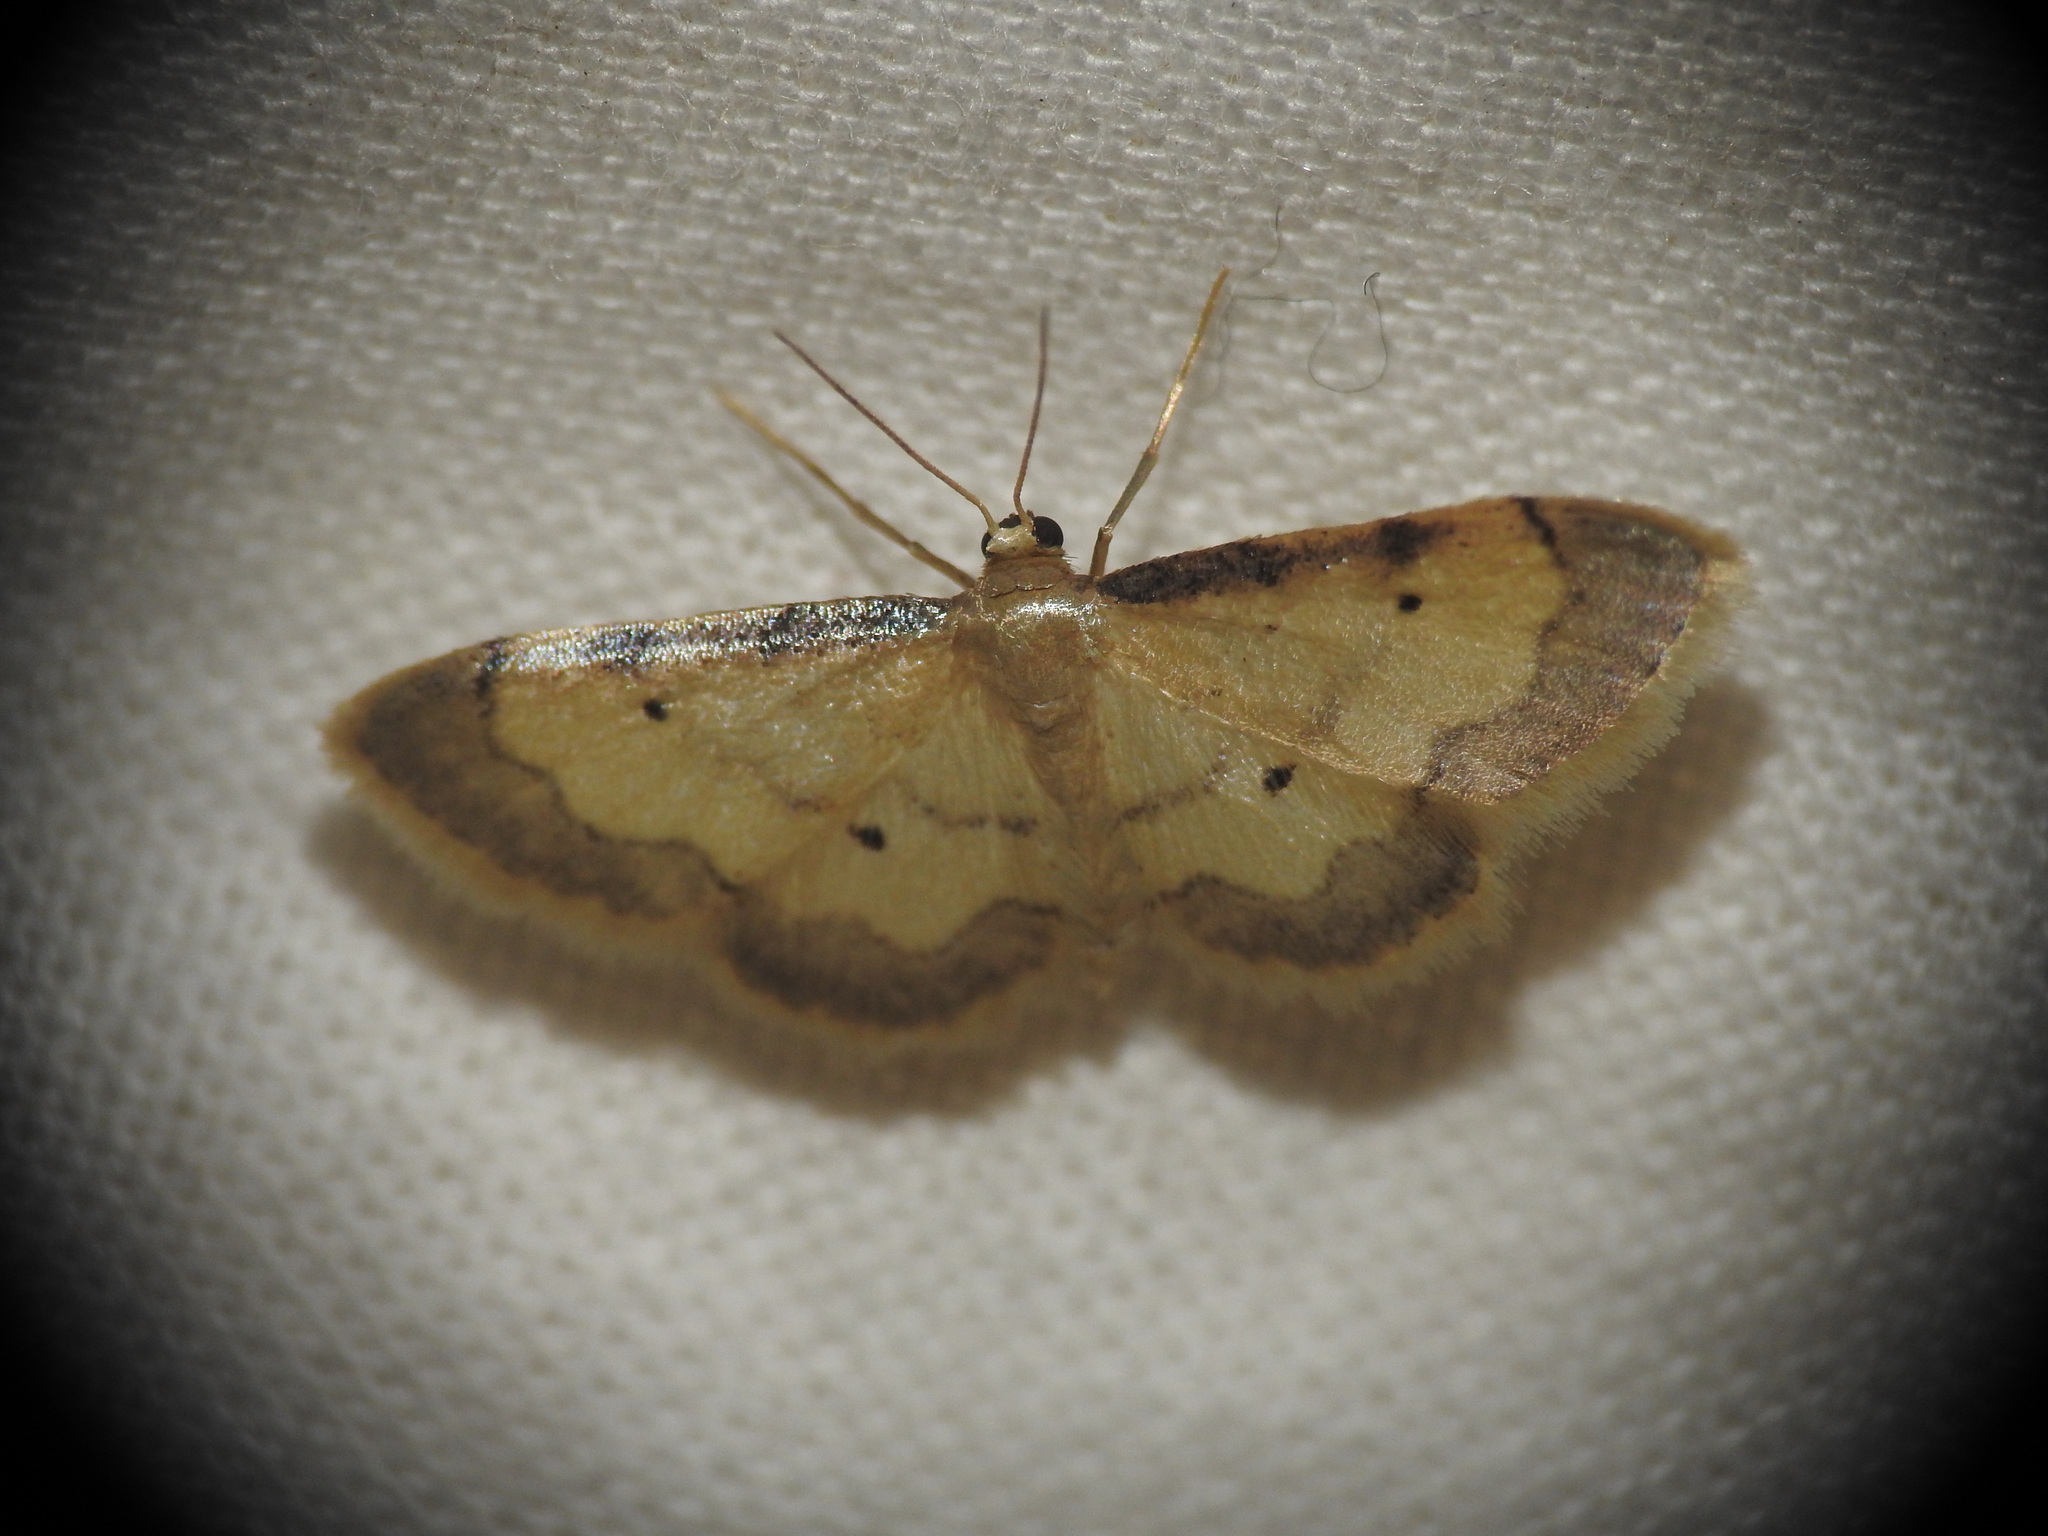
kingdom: Animalia
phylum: Arthropoda
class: Insecta
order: Lepidoptera
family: Geometridae
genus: Idaea
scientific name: Idaea politaria
